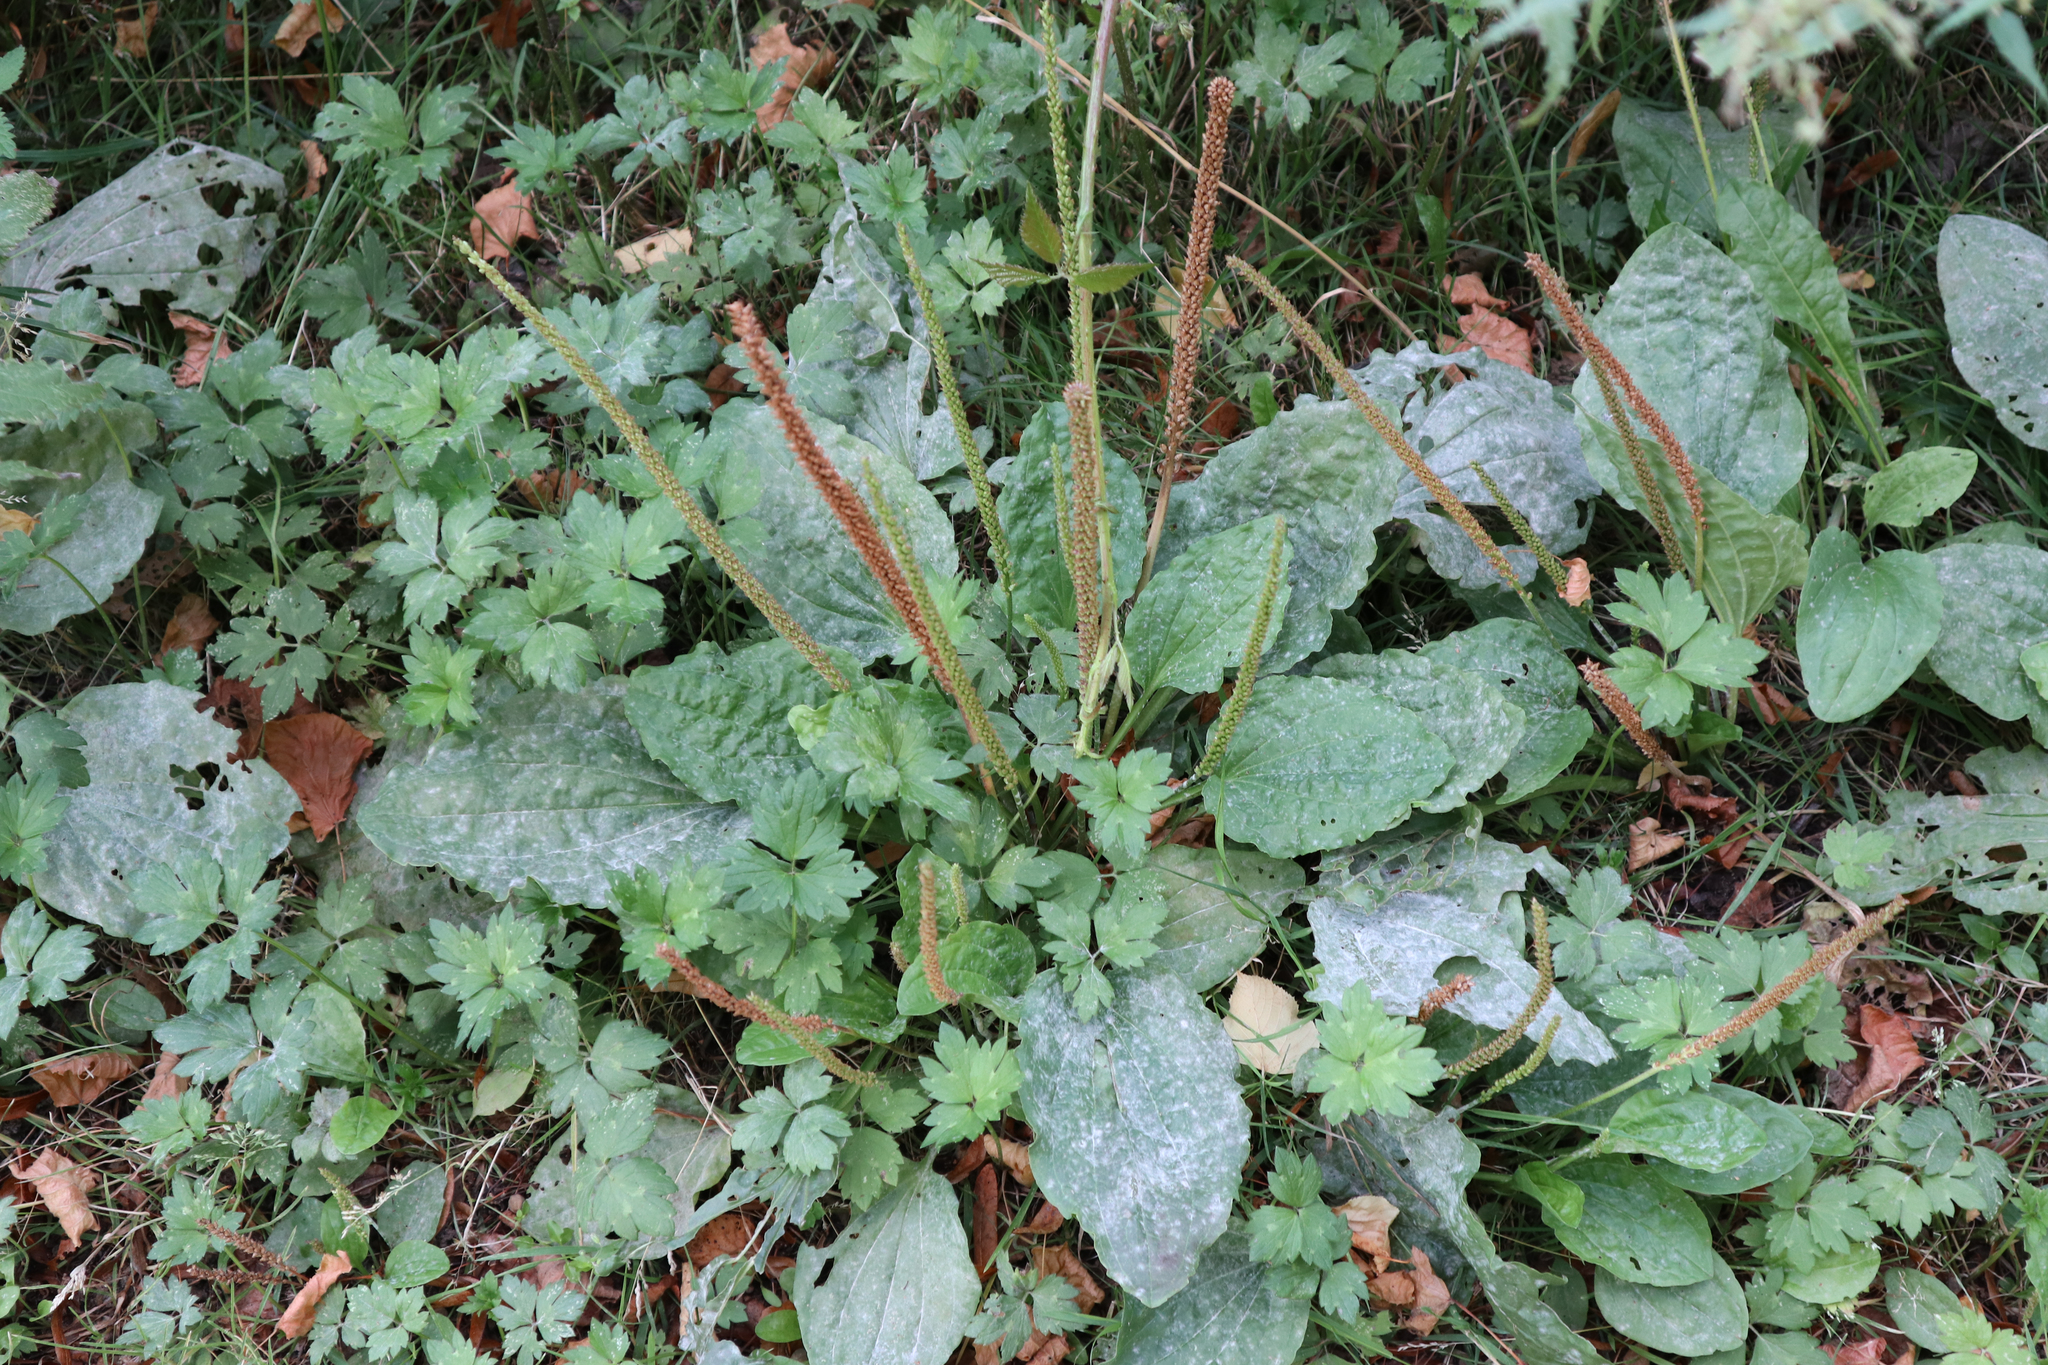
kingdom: Plantae
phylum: Tracheophyta
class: Magnoliopsida
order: Lamiales
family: Plantaginaceae
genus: Plantago
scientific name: Plantago major
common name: Common plantain
